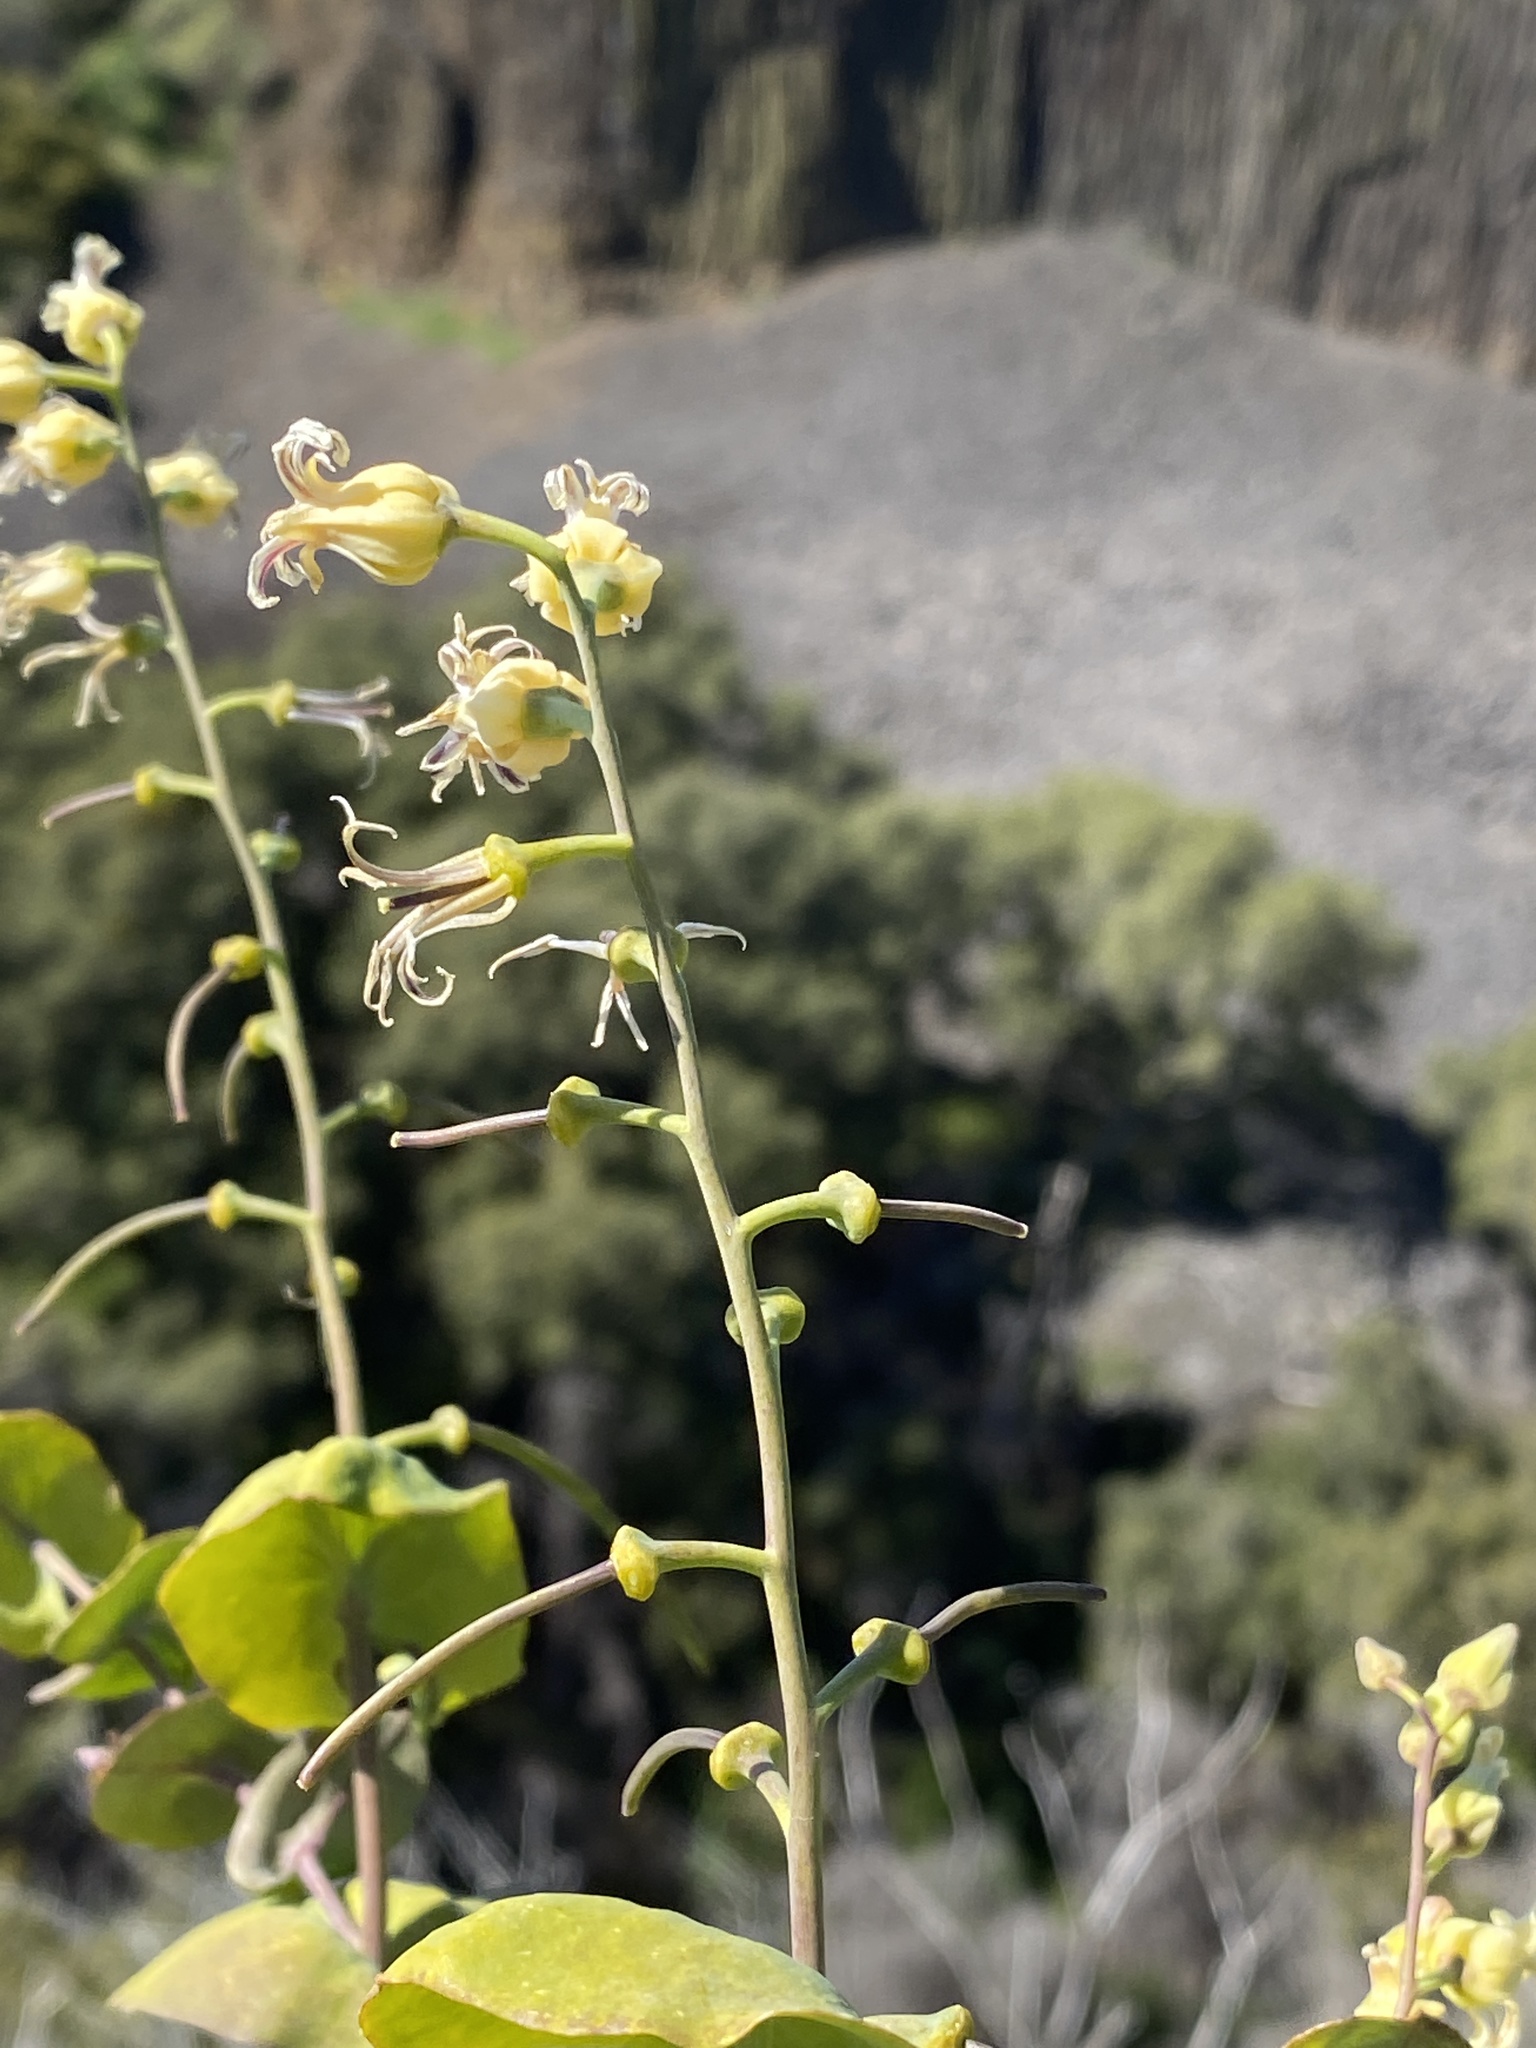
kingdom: Plantae
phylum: Tracheophyta
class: Magnoliopsida
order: Brassicales
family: Brassicaceae
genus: Streptanthus
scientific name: Streptanthus tortuosus
